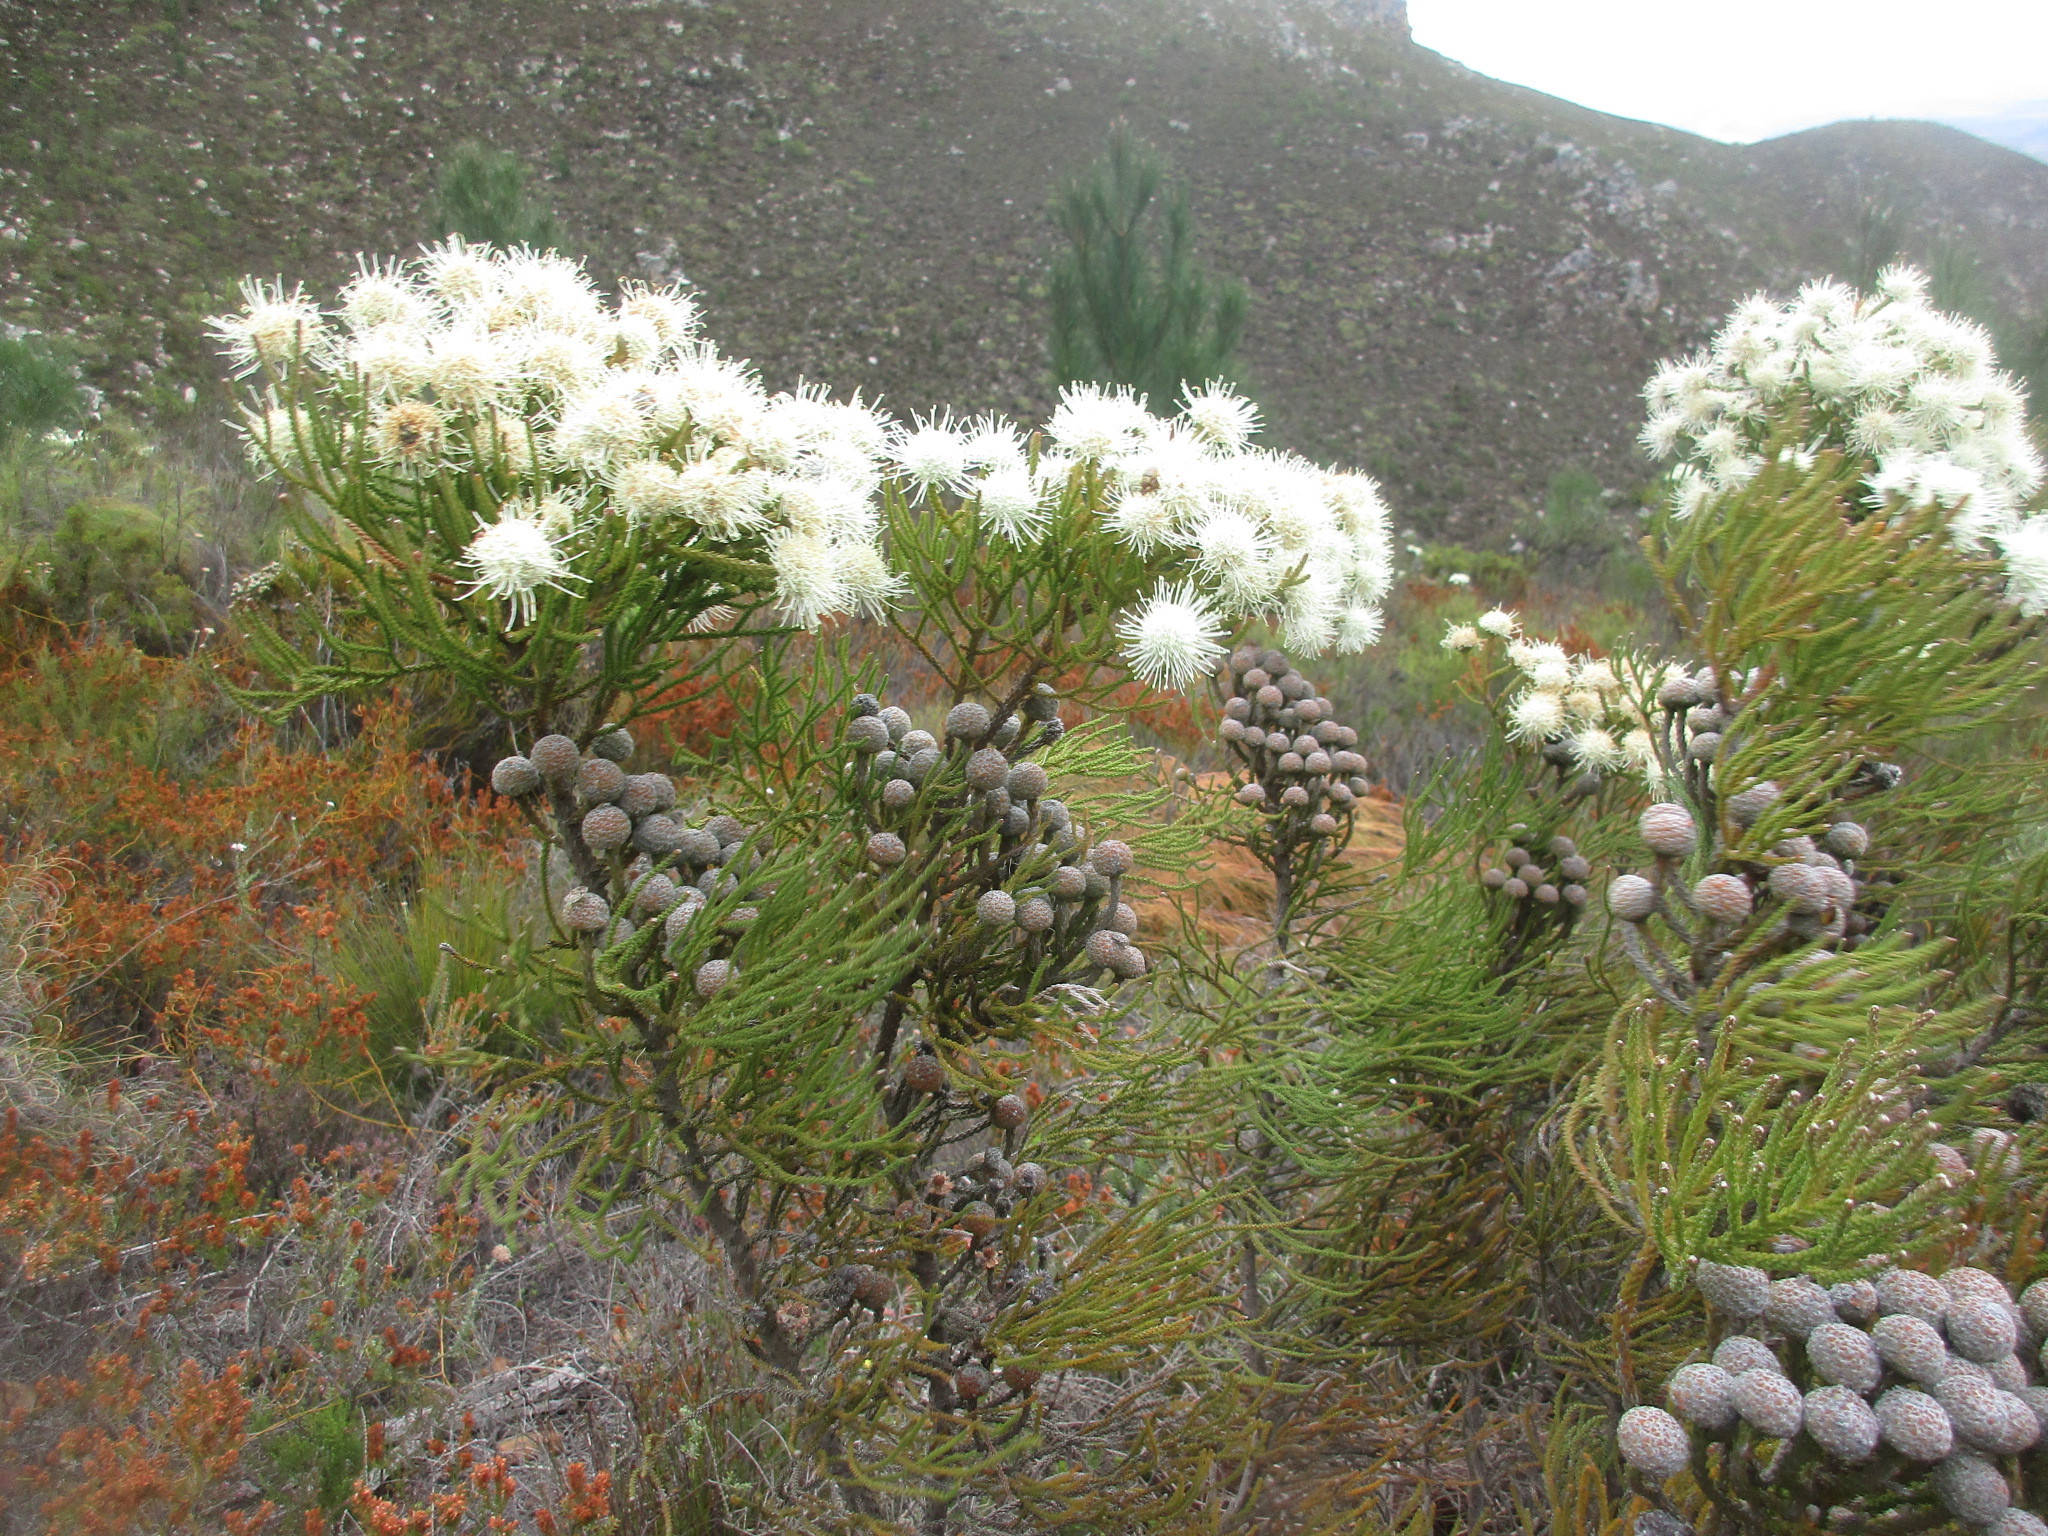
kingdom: Plantae
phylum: Tracheophyta
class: Magnoliopsida
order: Bruniales
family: Bruniaceae
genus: Brunia
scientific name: Brunia noduliflora
